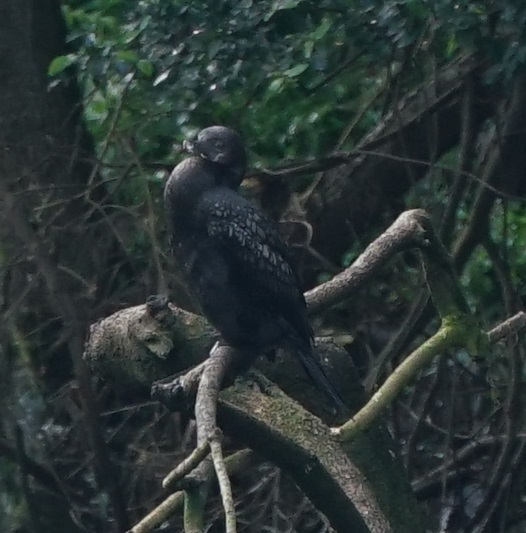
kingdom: Animalia
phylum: Chordata
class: Aves
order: Suliformes
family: Phalacrocoracidae
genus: Phalacrocorax
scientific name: Phalacrocorax sulcirostris
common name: Little black cormorant
